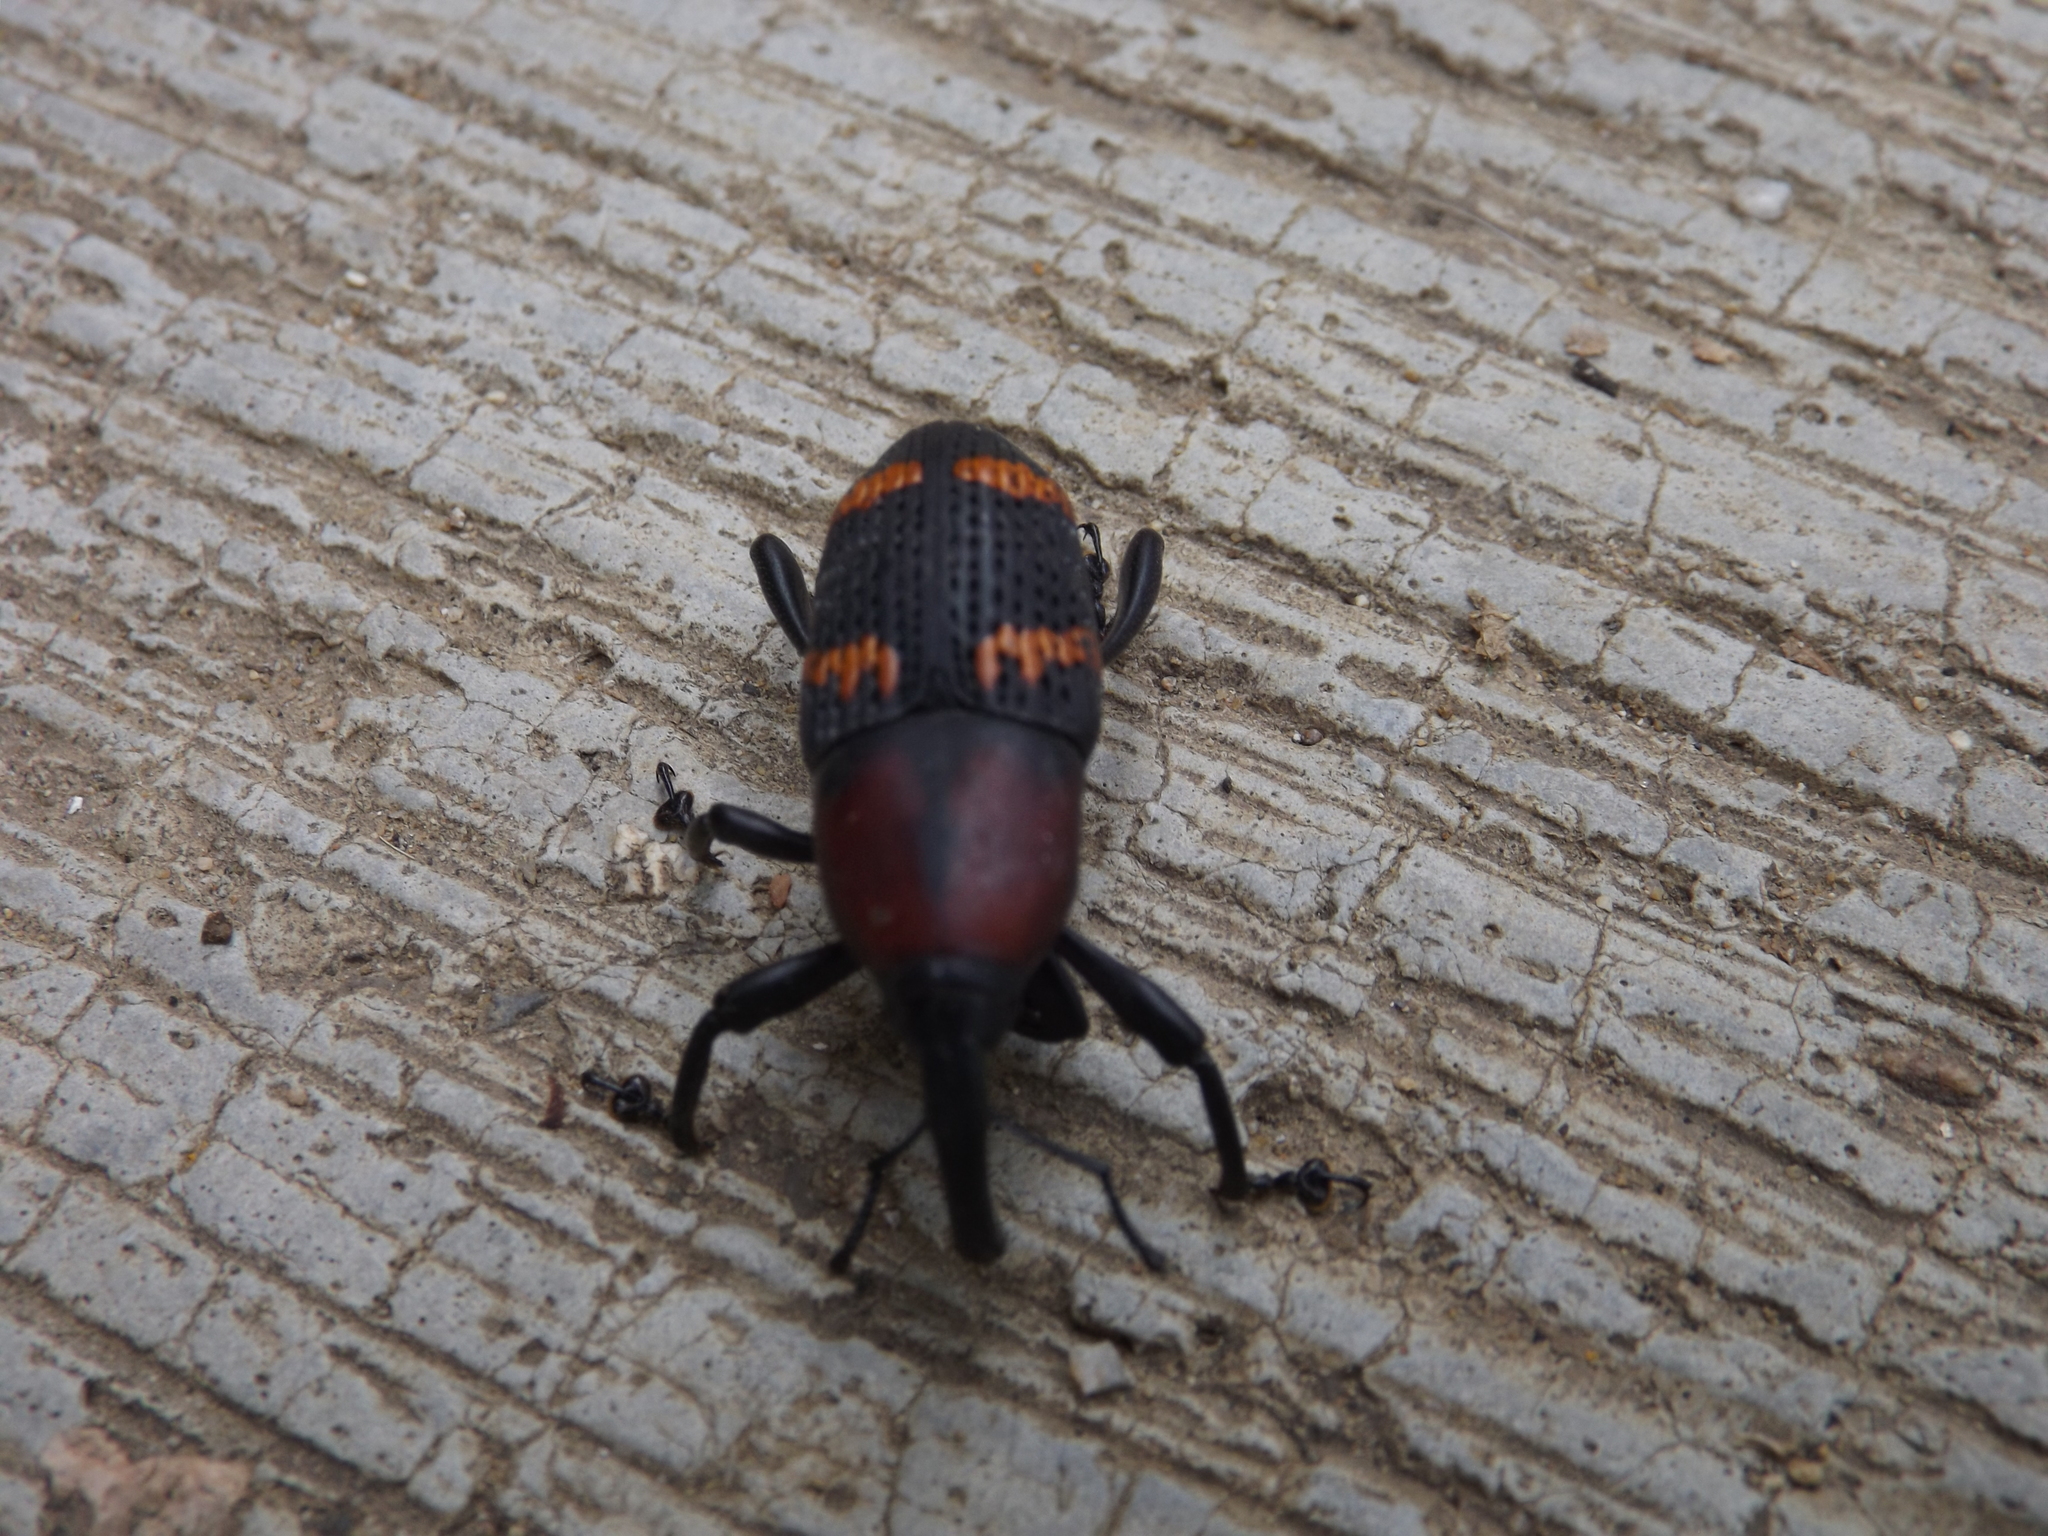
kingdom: Animalia
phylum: Arthropoda
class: Insecta
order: Coleoptera
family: Dryophthoridae
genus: Cactophagus
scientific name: Cactophagus
